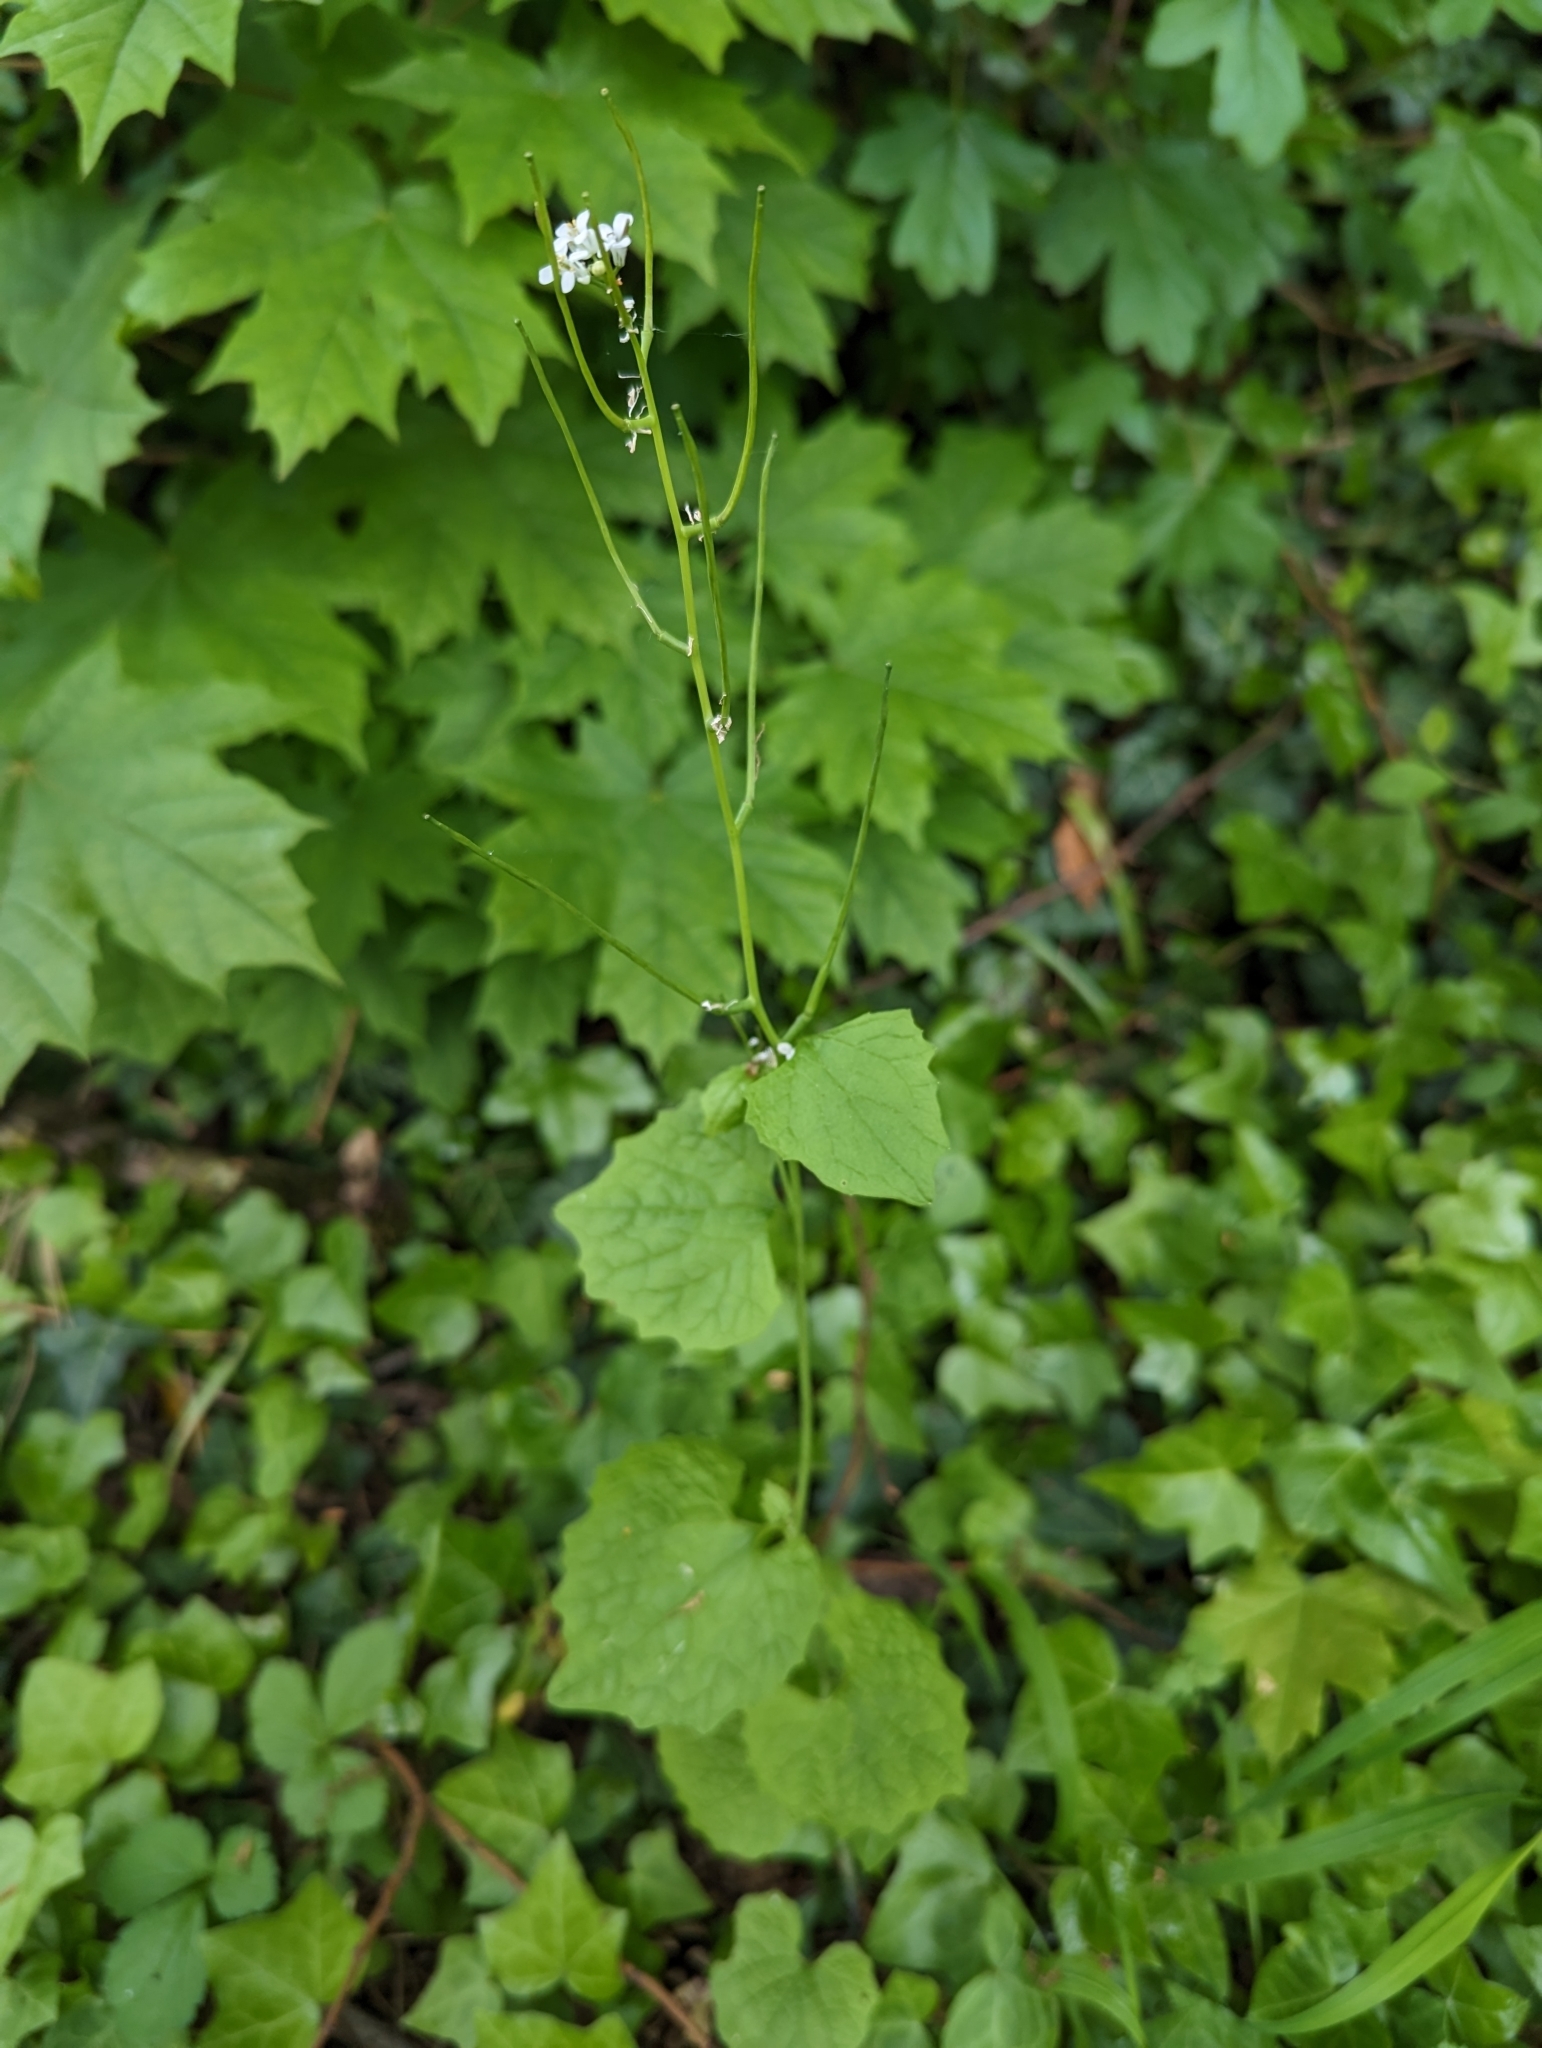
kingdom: Plantae
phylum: Tracheophyta
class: Magnoliopsida
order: Brassicales
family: Brassicaceae
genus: Alliaria
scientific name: Alliaria petiolata
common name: Garlic mustard
